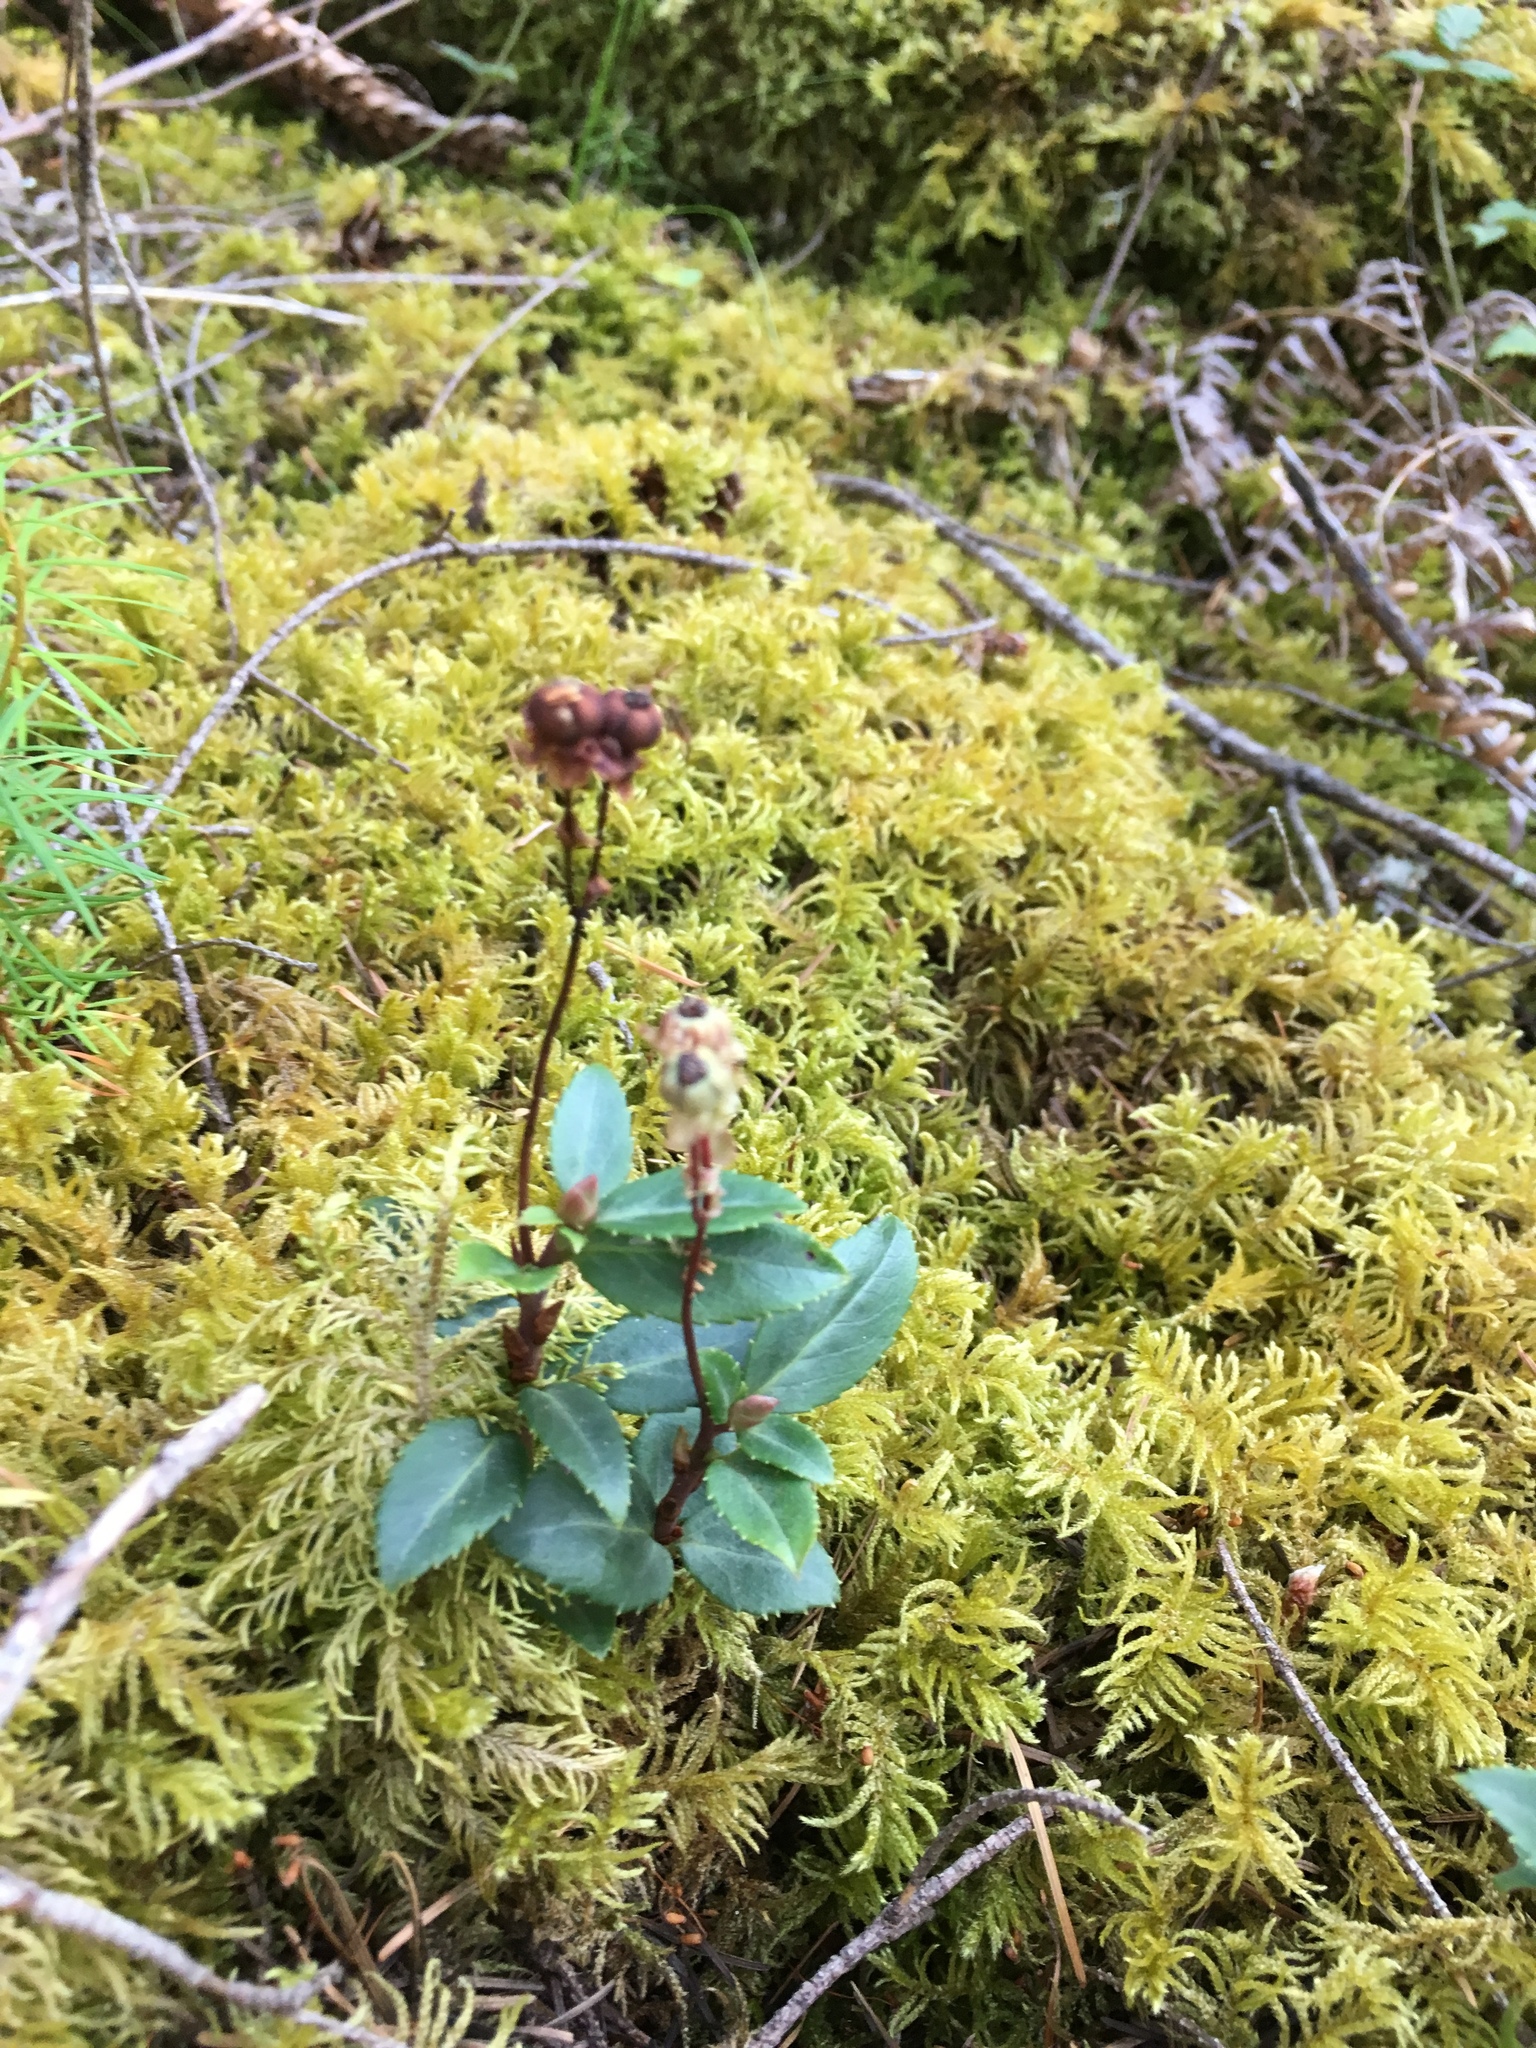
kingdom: Plantae
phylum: Tracheophyta
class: Magnoliopsida
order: Ericales
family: Ericaceae
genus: Chimaphila
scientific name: Chimaphila menziesii
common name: Menzies' pipsissewa
